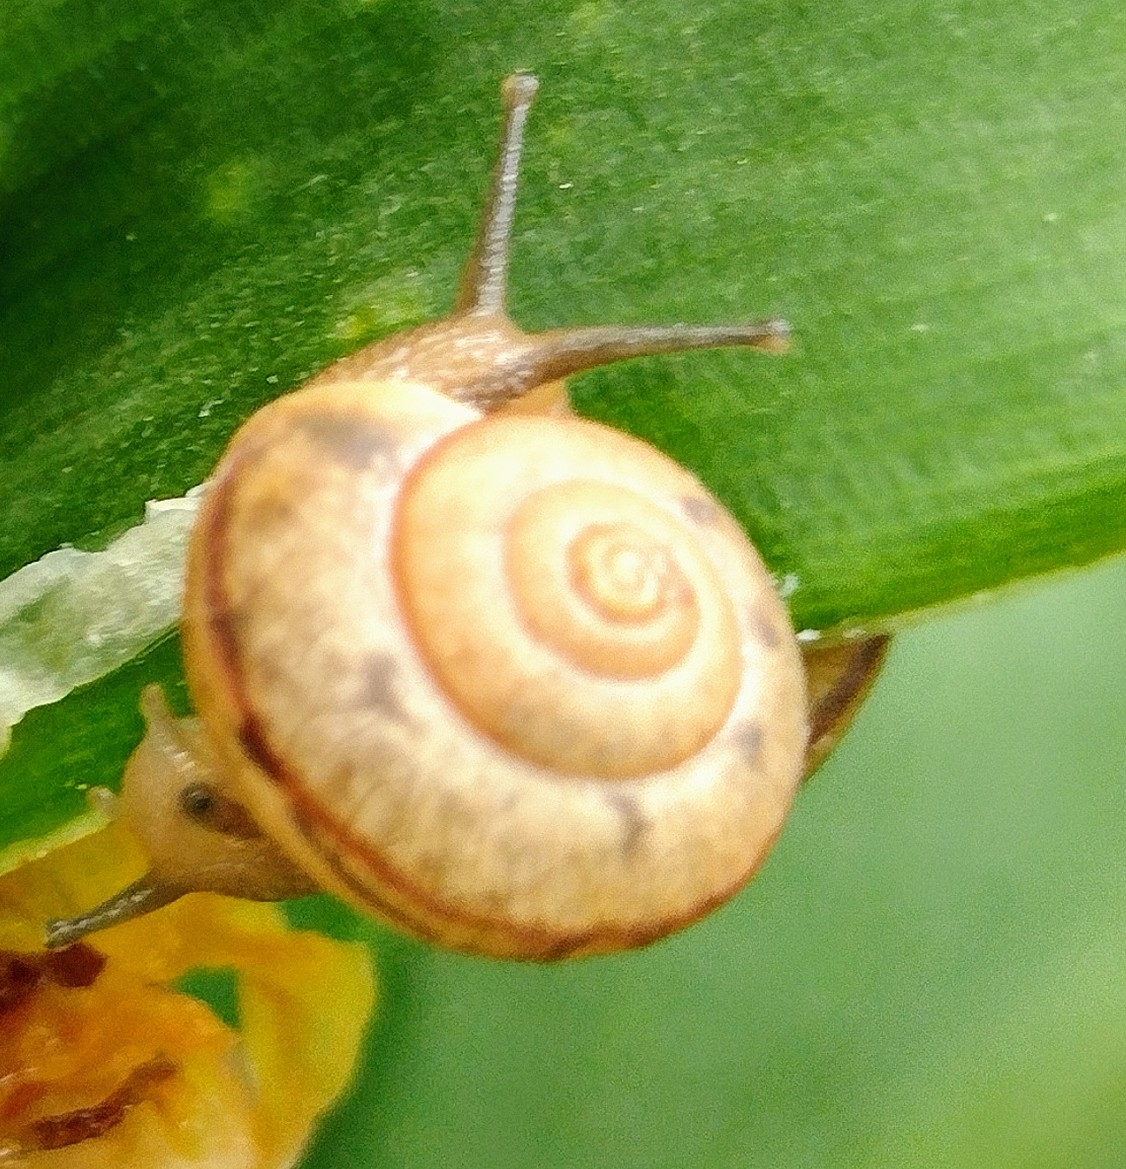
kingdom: Animalia
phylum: Mollusca
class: Gastropoda
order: Stylommatophora
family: Camaenidae
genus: Bradybaena
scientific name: Bradybaena similaris
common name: Asian trampsnail
